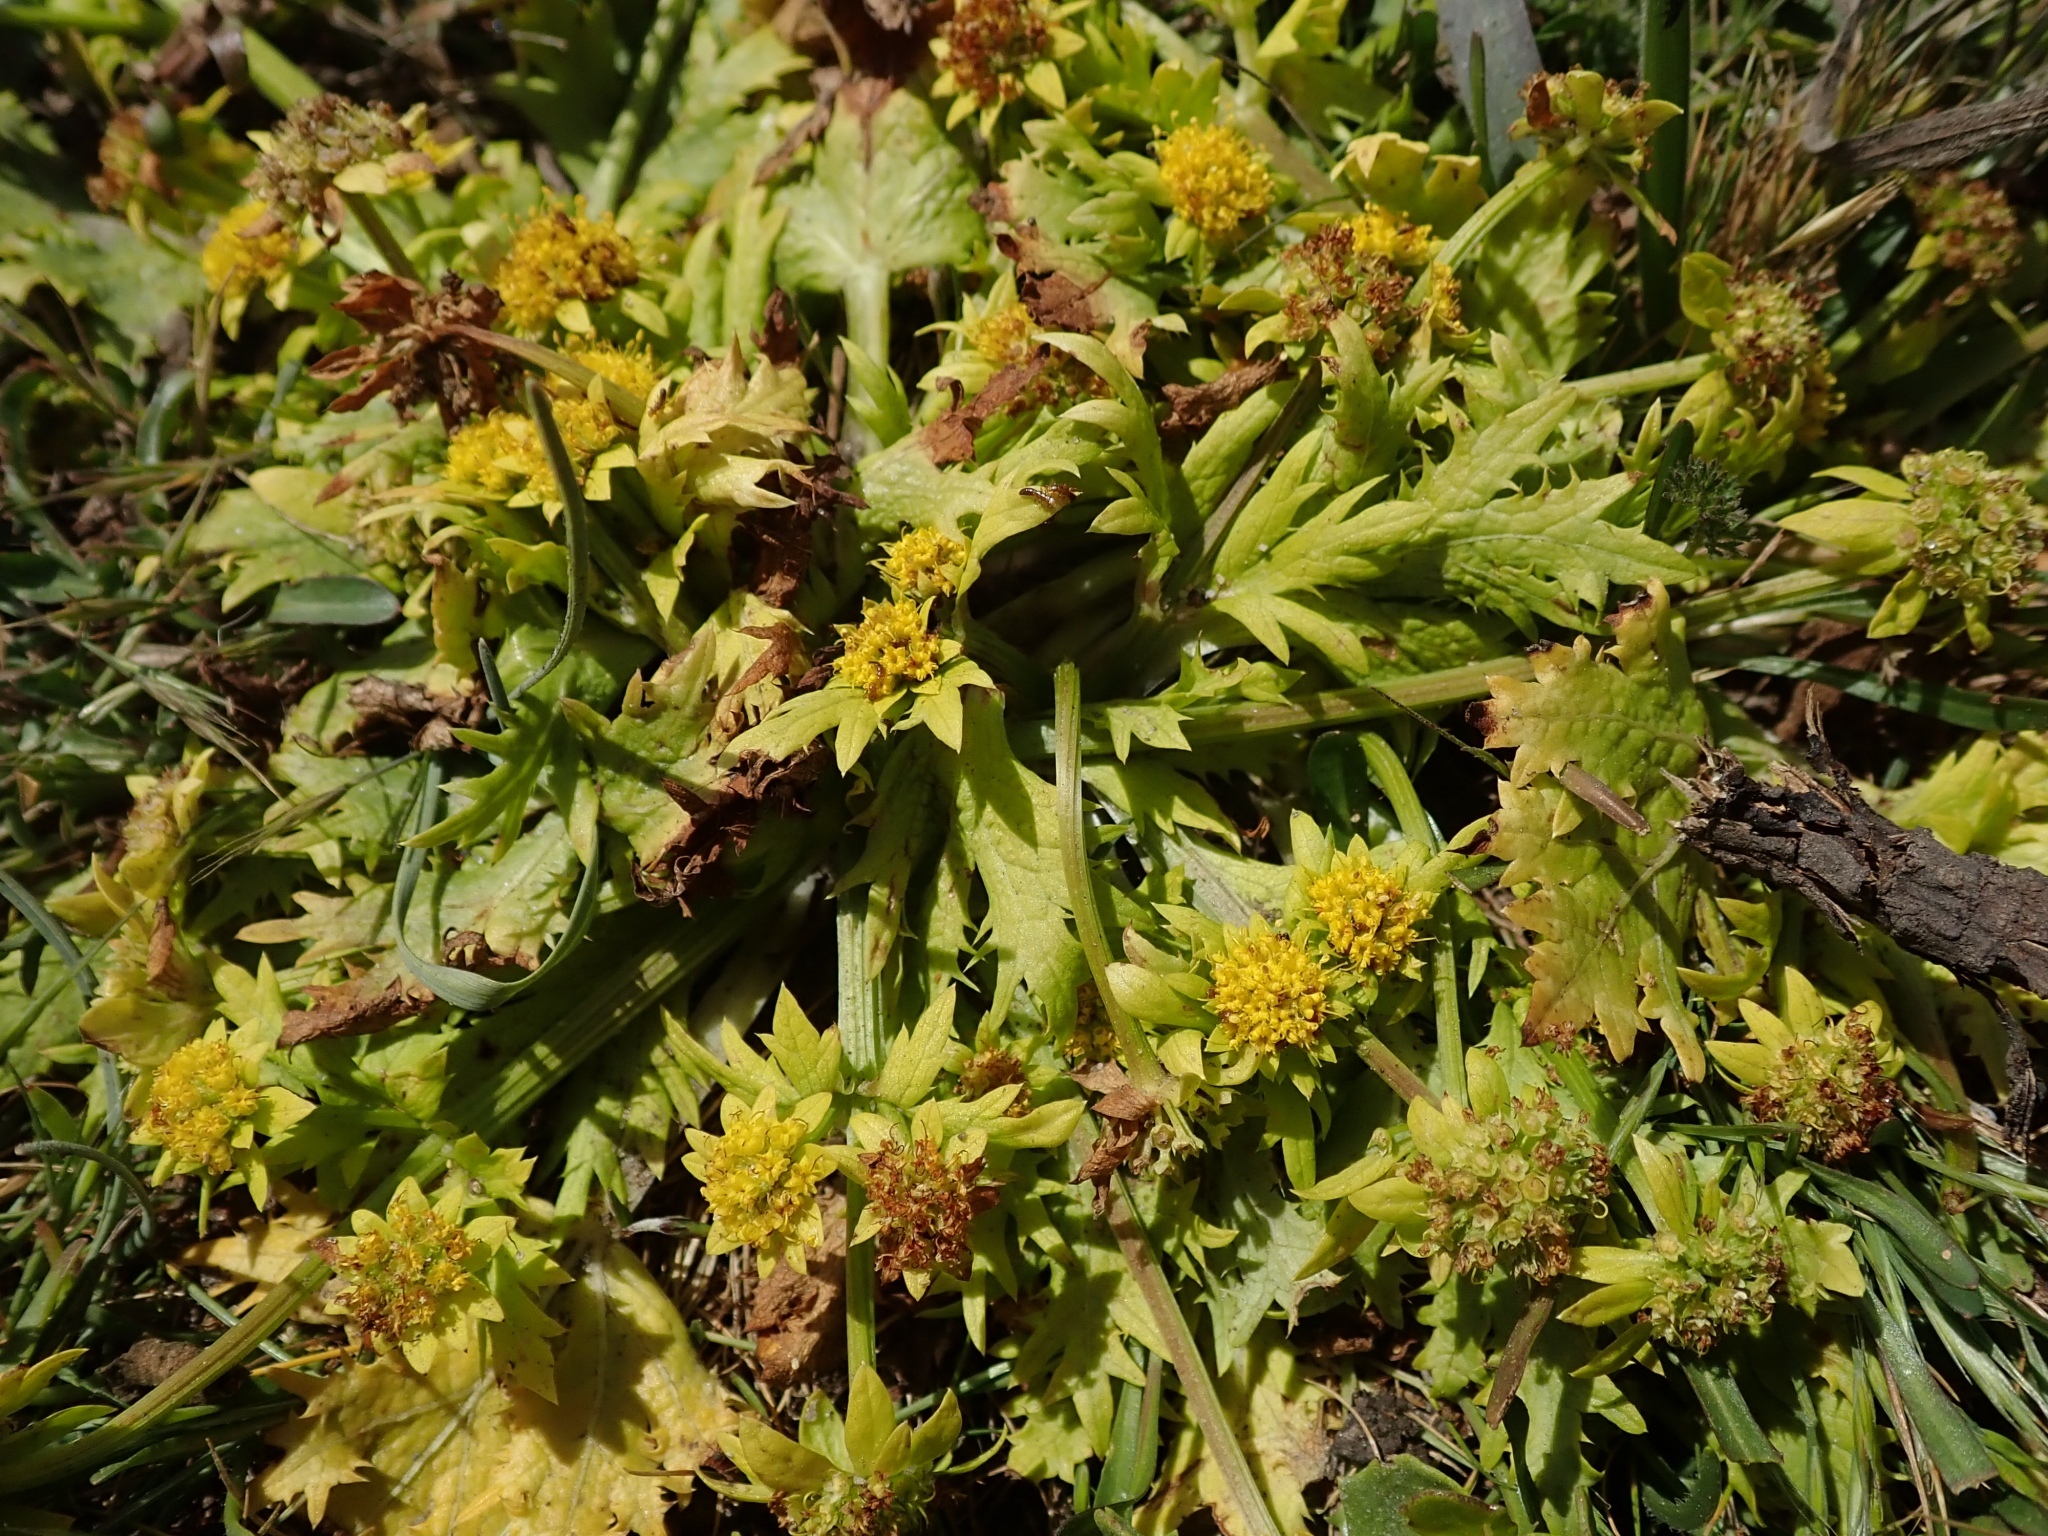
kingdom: Plantae
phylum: Tracheophyta
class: Magnoliopsida
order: Apiales
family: Apiaceae
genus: Sanicula
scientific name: Sanicula arctopoides
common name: Footsteps-of-spring
